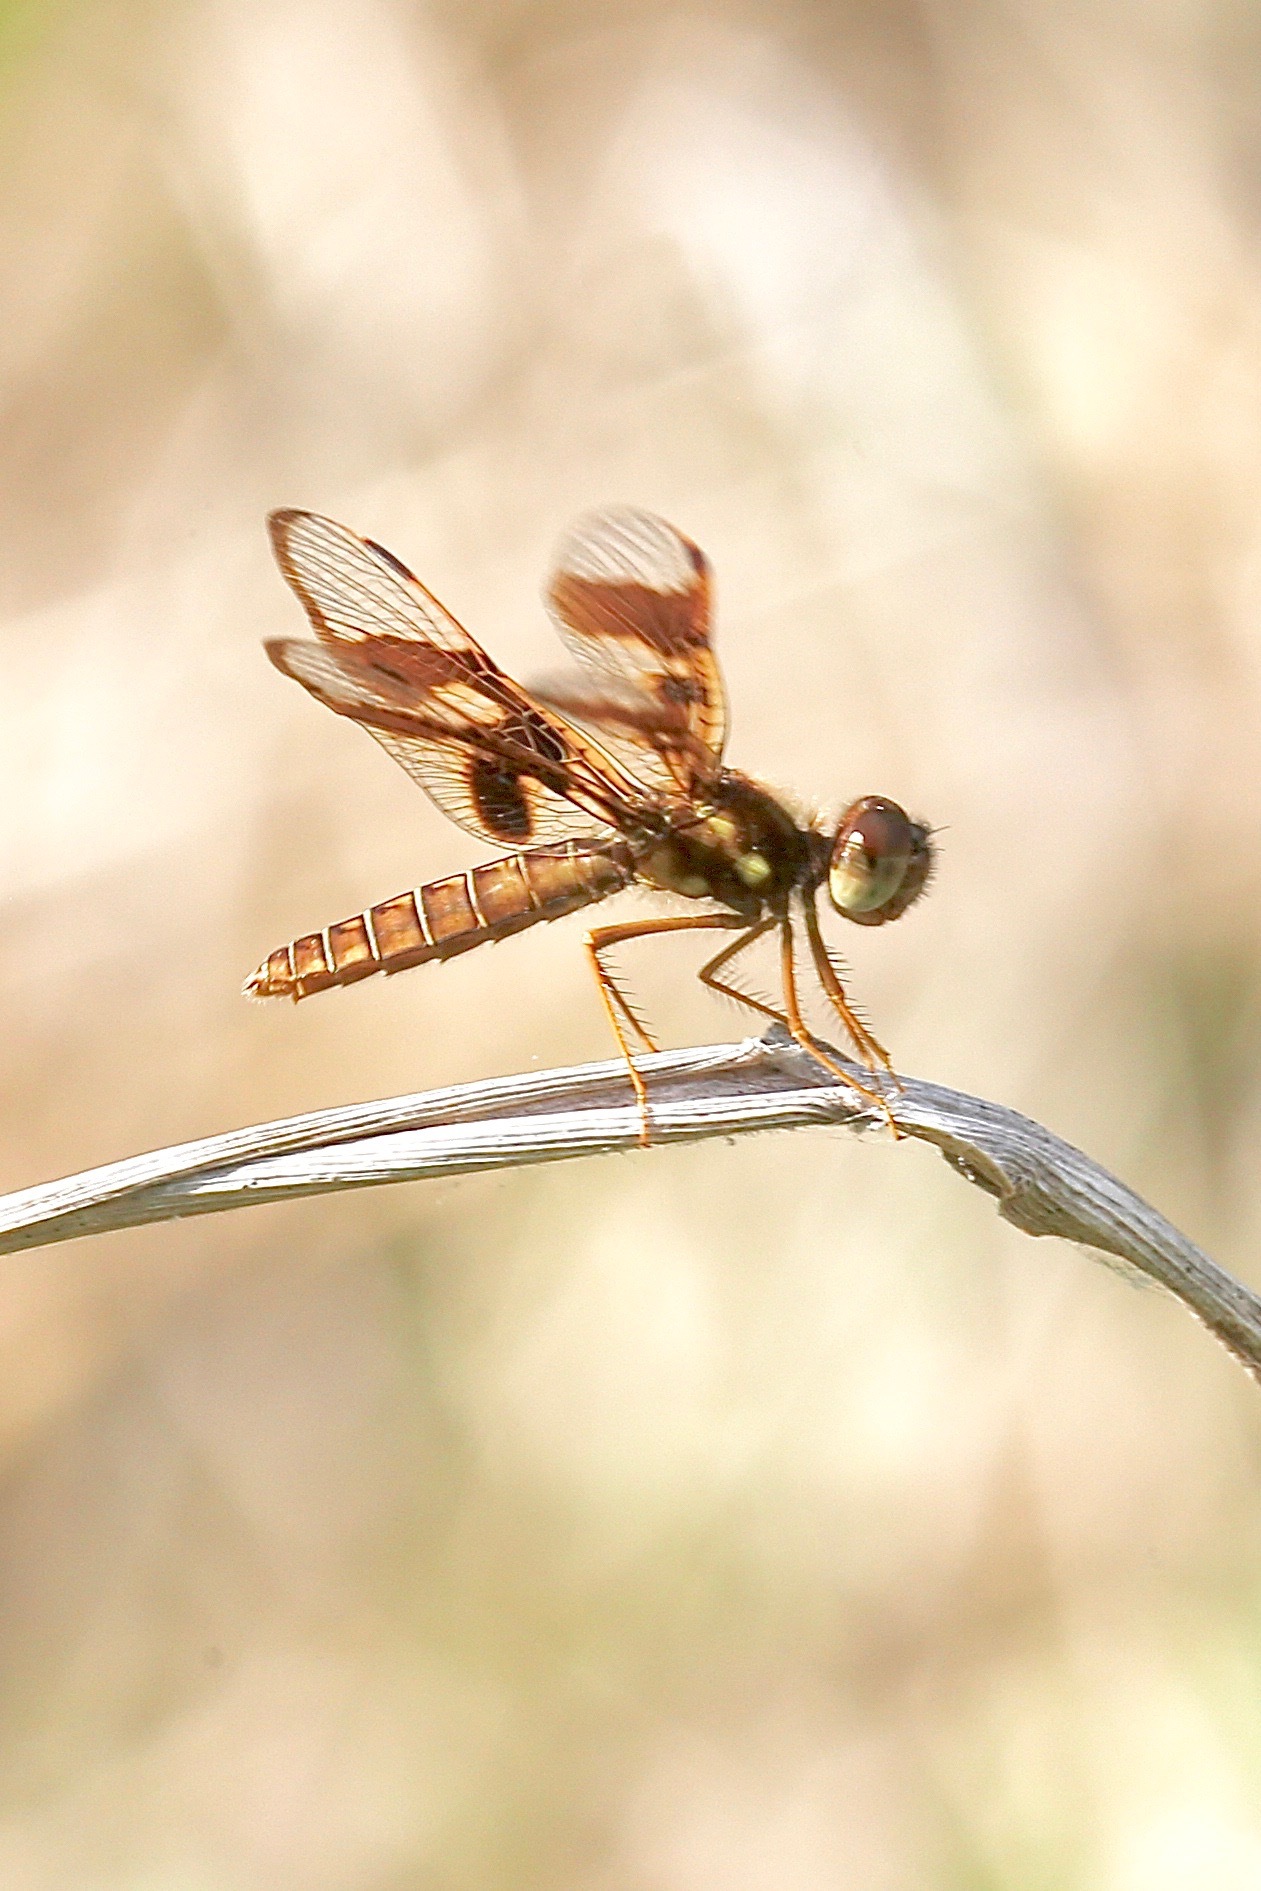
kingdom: Animalia
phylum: Arthropoda
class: Insecta
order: Odonata
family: Libellulidae
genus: Perithemis
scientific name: Perithemis tenera
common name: Eastern amberwing
